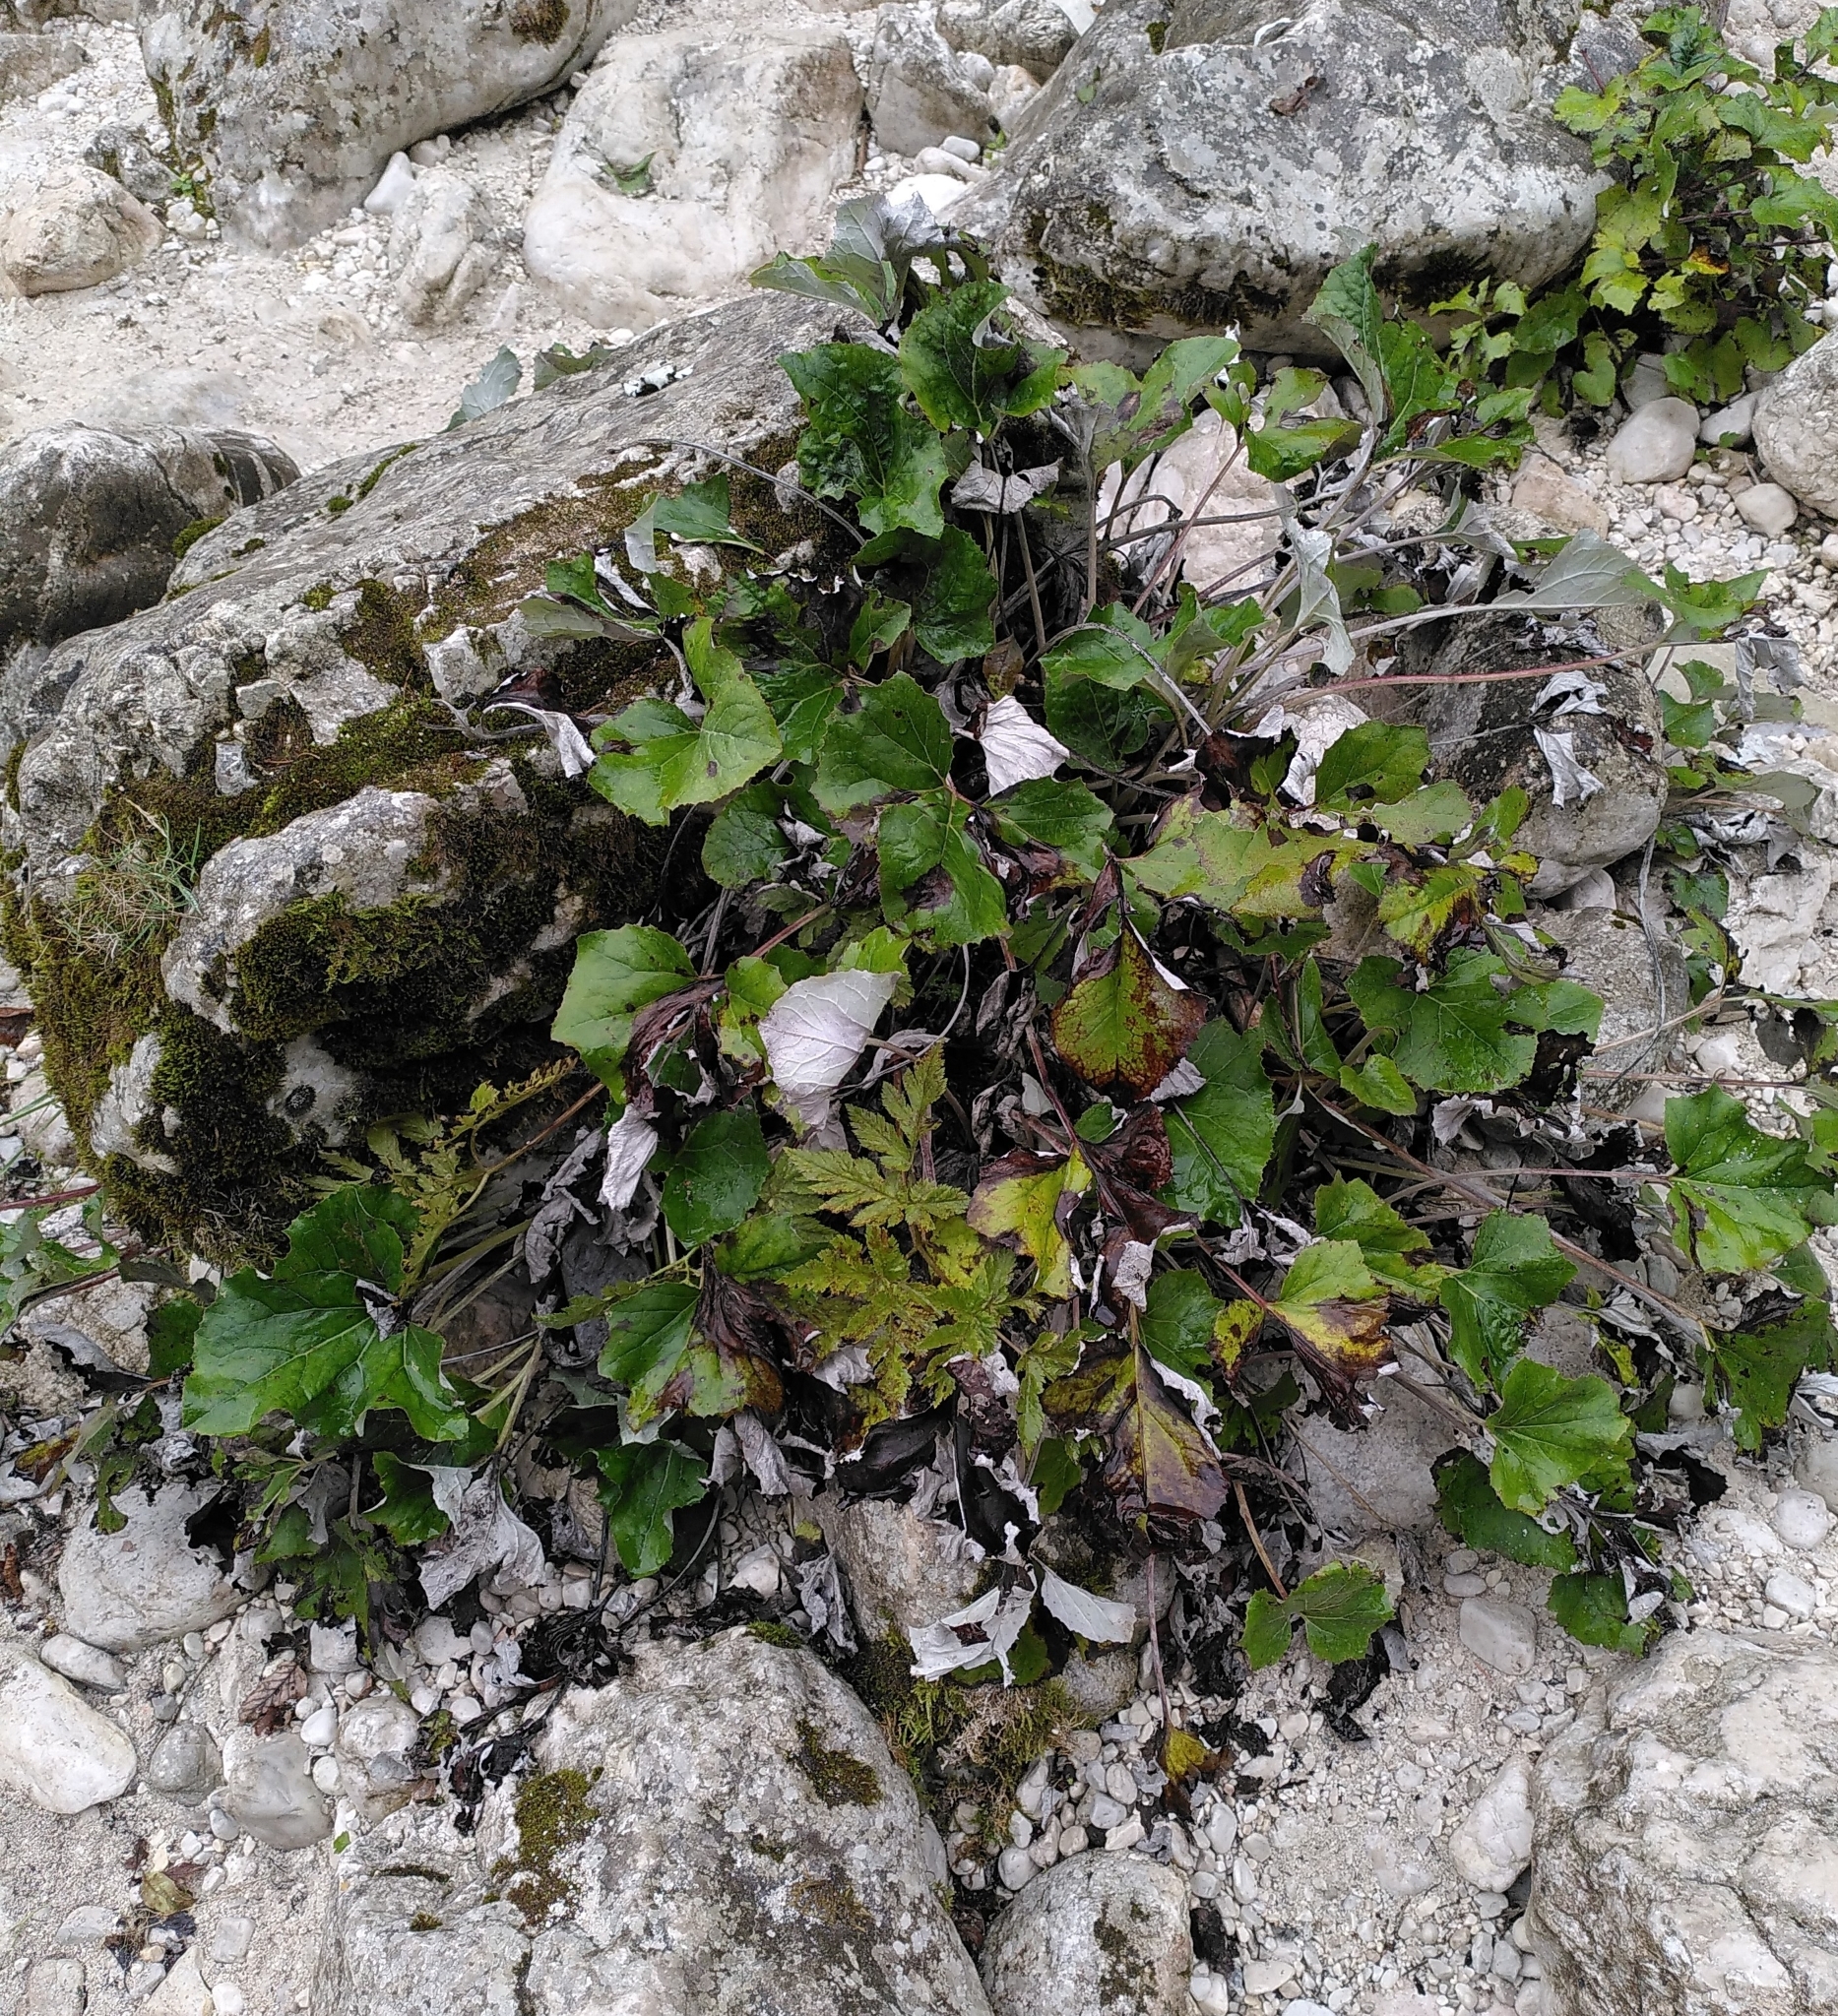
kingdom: Plantae
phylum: Tracheophyta
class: Magnoliopsida
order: Asterales
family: Asteraceae
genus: Petasites
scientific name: Petasites paradoxus
